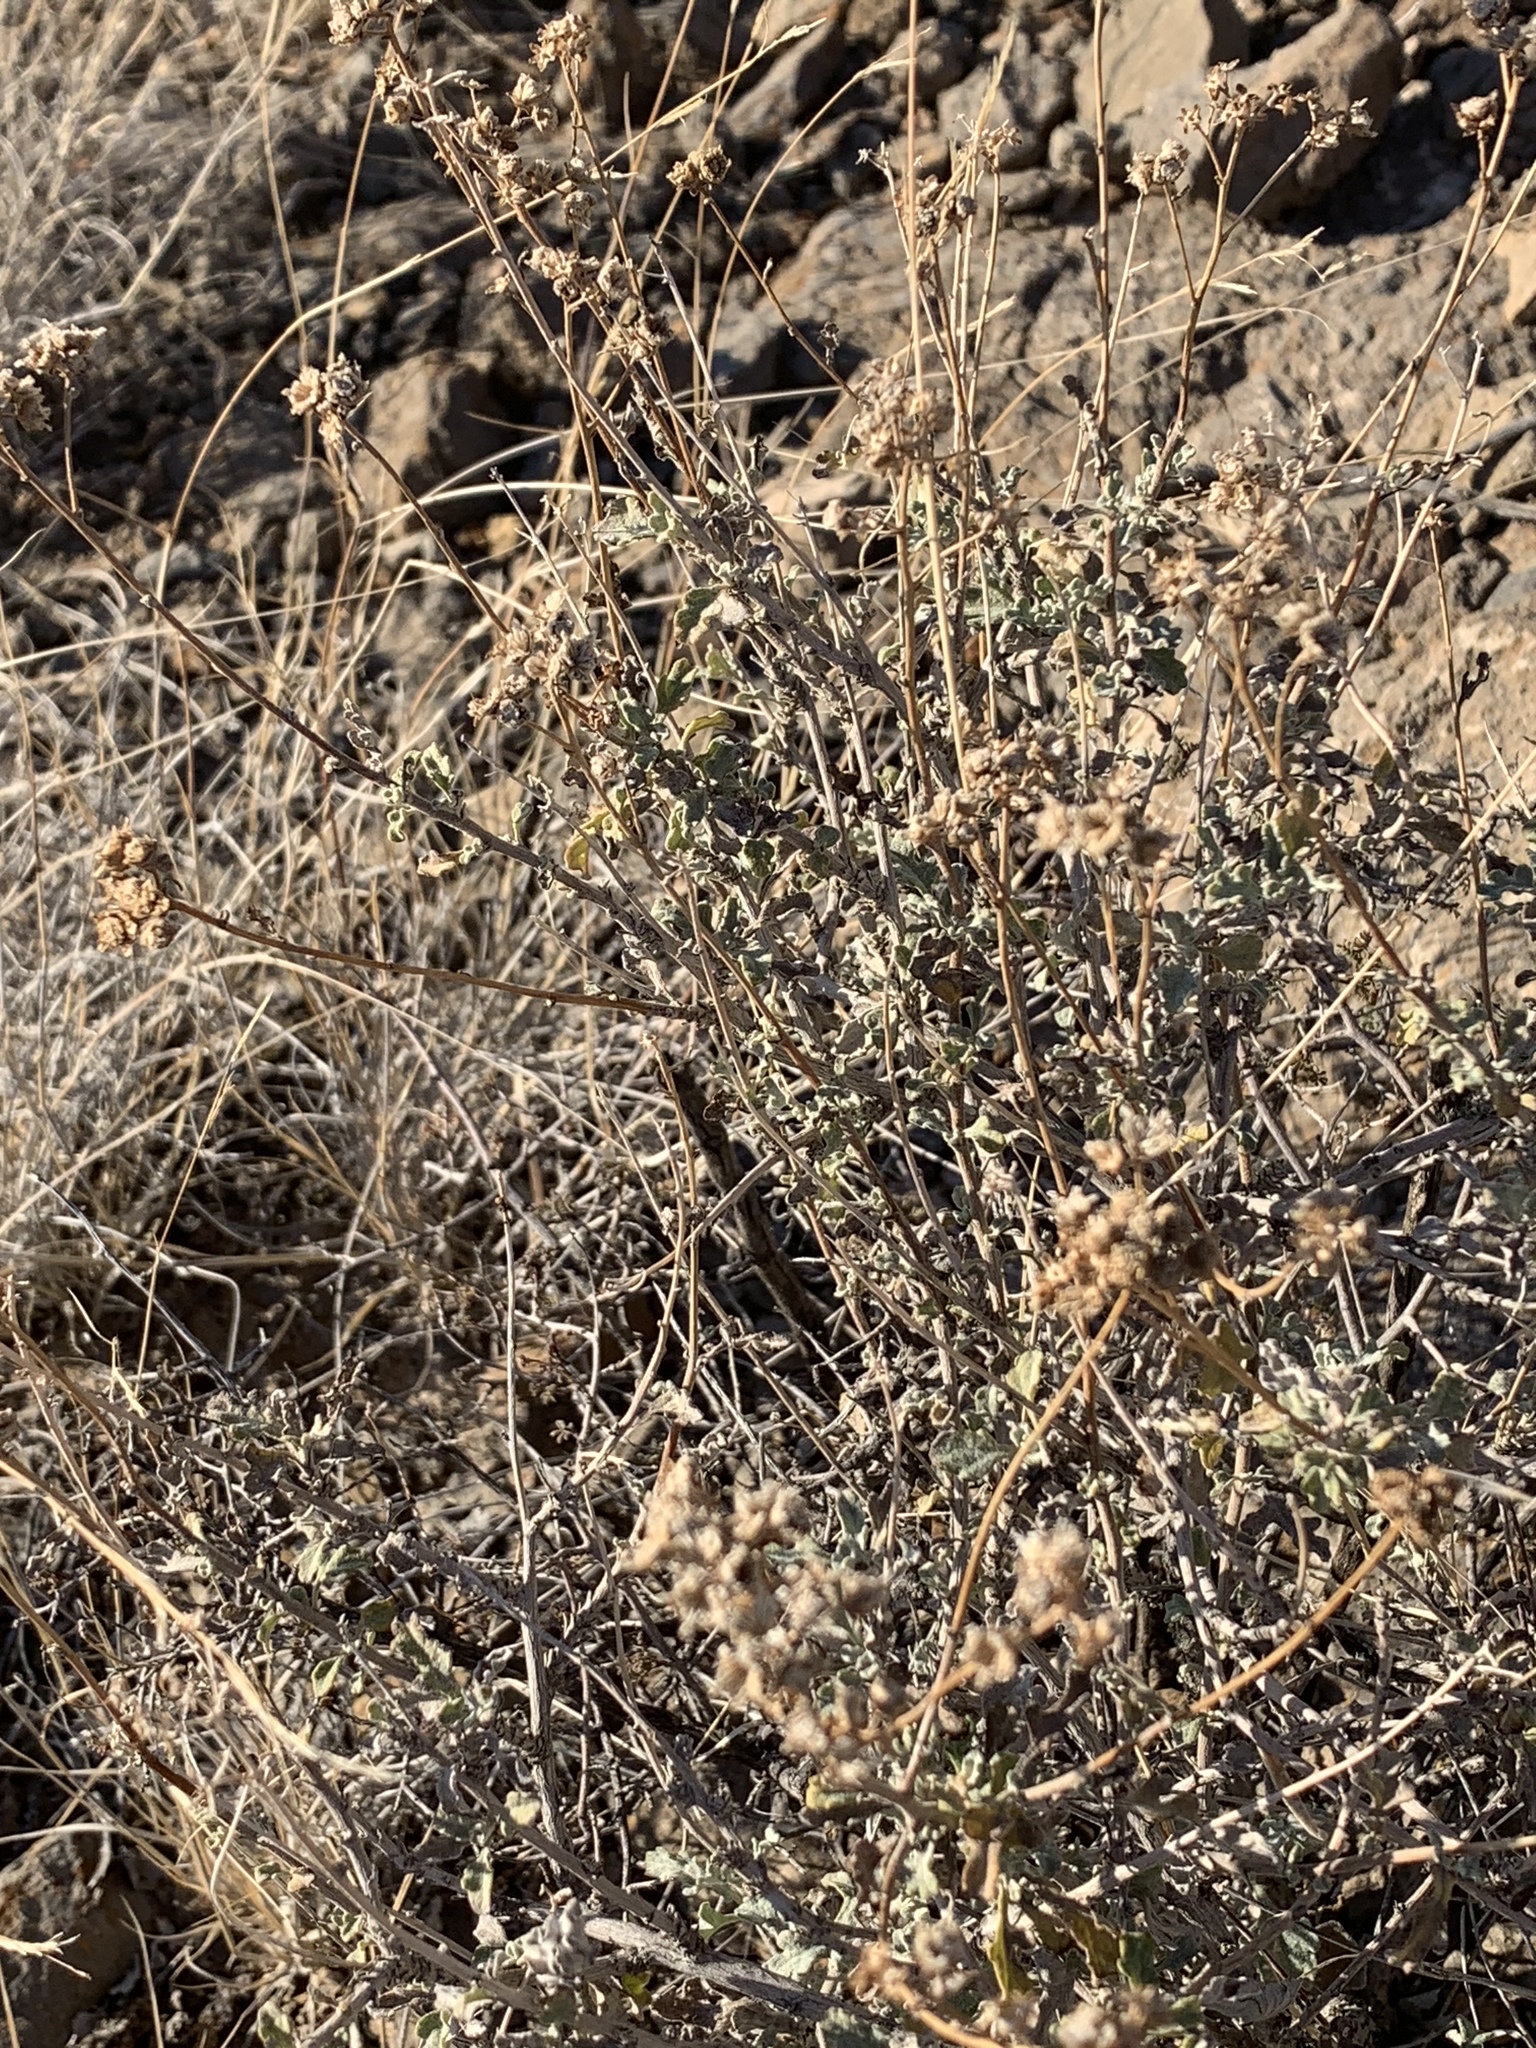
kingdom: Plantae
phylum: Tracheophyta
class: Magnoliopsida
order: Asterales
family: Asteraceae
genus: Parthenium
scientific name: Parthenium incanum
